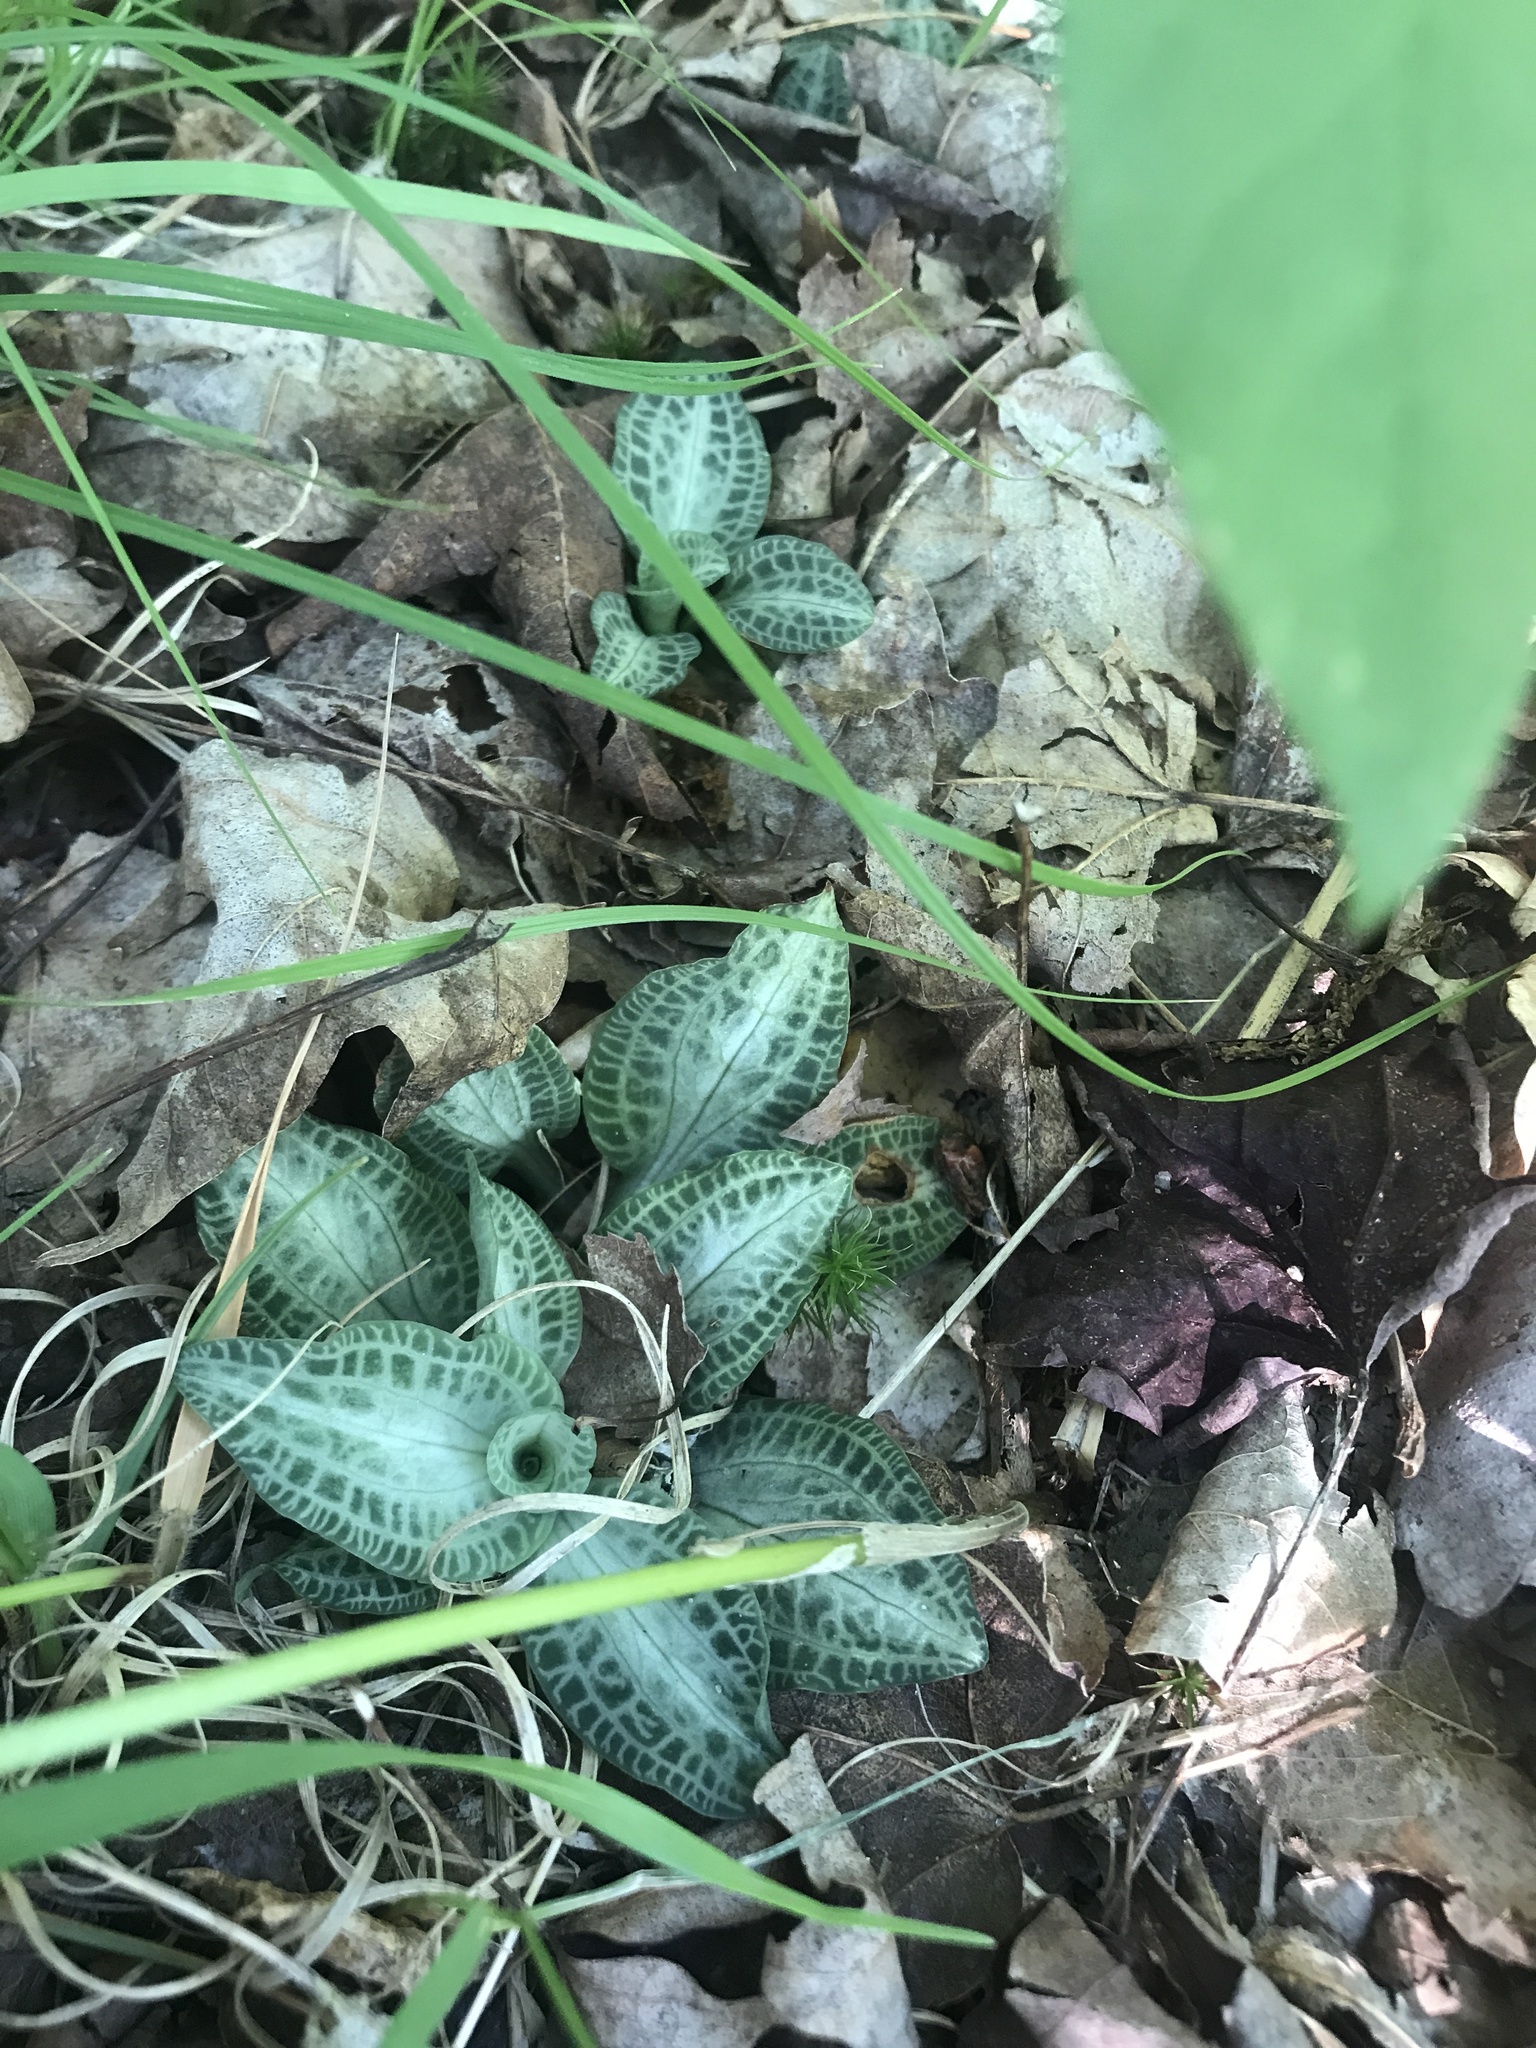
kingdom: Plantae
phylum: Tracheophyta
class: Liliopsida
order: Asparagales
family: Orchidaceae
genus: Goodyera
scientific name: Goodyera pubescens
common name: Downy rattlesnake-plantain
